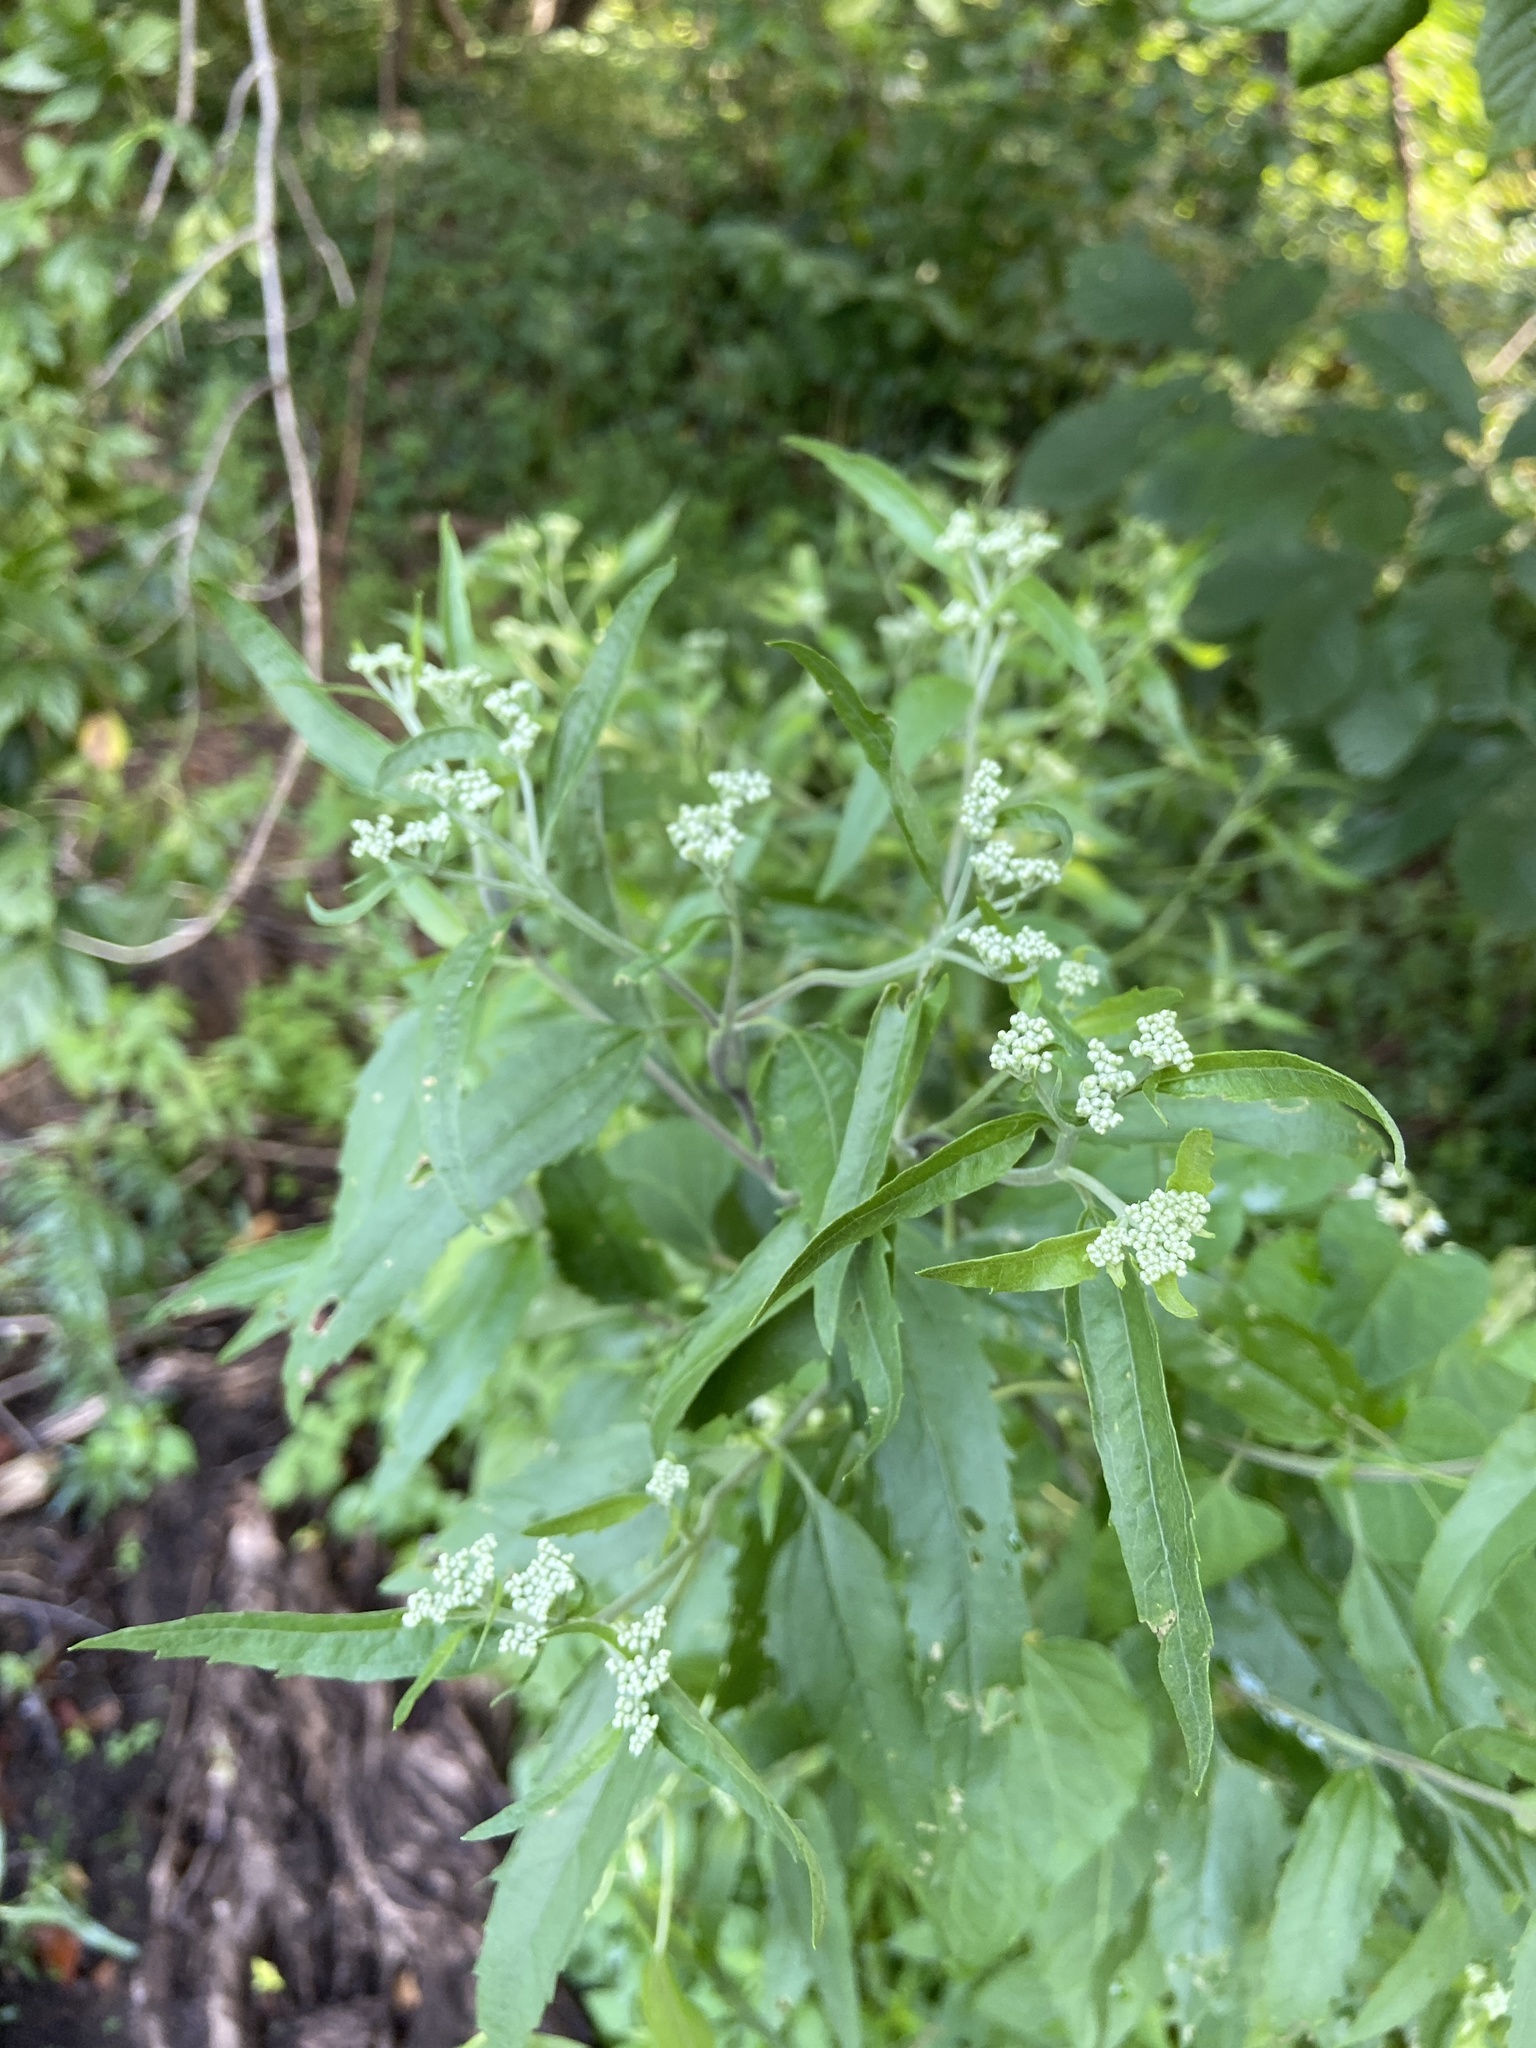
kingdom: Plantae
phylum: Tracheophyta
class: Magnoliopsida
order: Asterales
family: Asteraceae
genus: Eupatorium
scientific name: Eupatorium serotinum
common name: Late boneset
